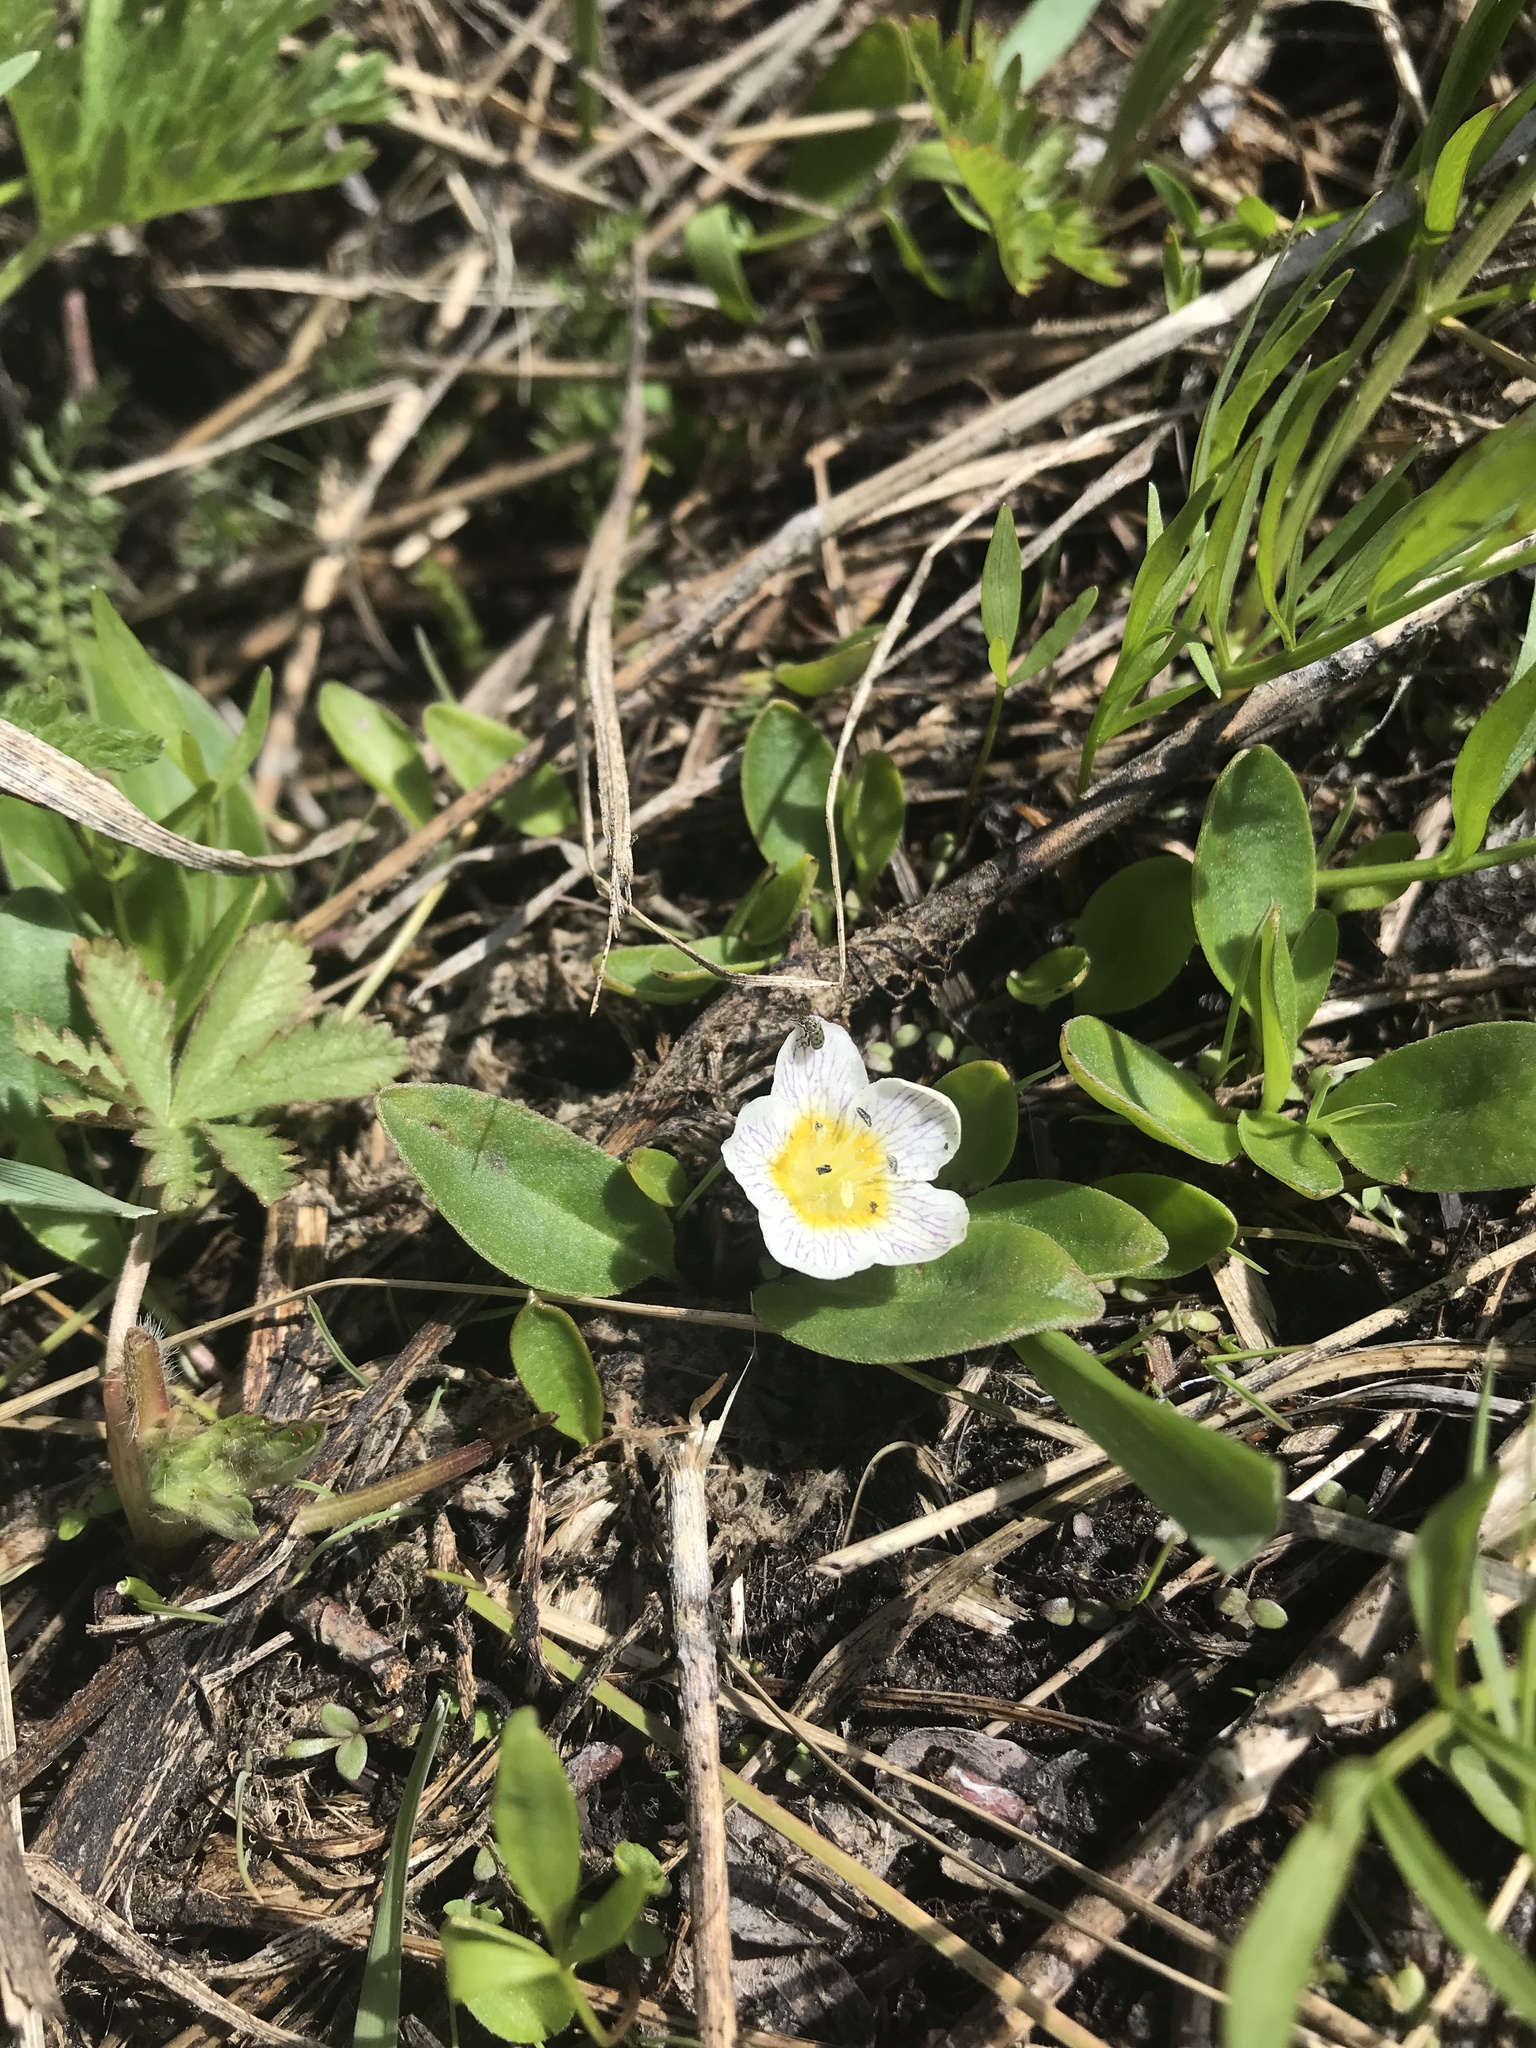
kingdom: Plantae
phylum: Tracheophyta
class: Magnoliopsida
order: Boraginales
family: Hydrophyllaceae
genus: Hesperochiron
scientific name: Hesperochiron pumilus
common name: Dwarf hesperochiron
